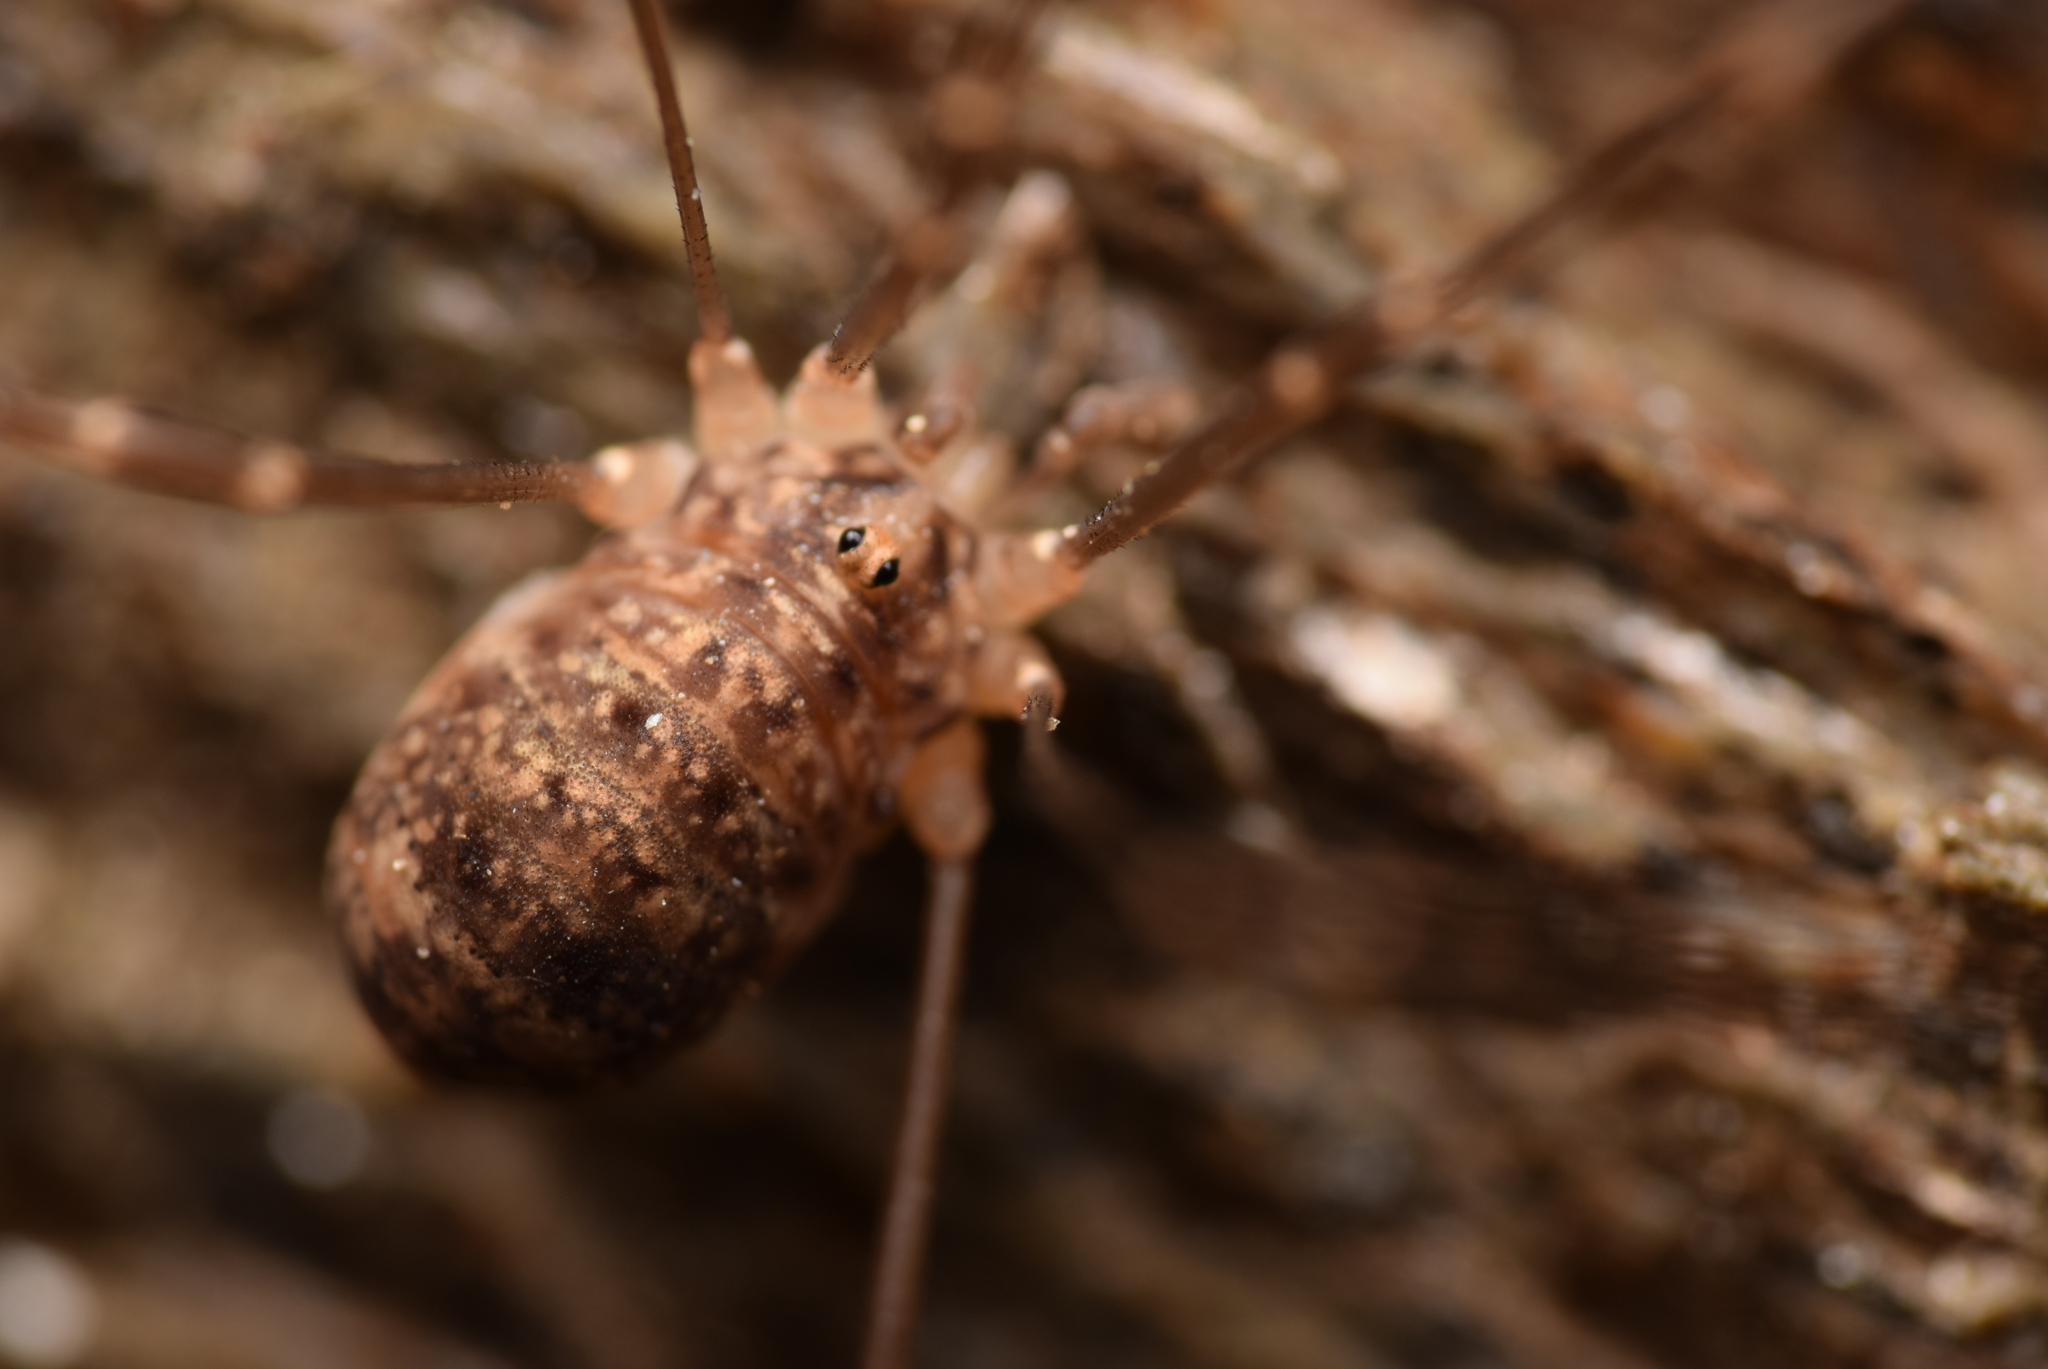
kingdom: Animalia
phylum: Arthropoda
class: Arachnida
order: Opiliones
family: Sclerosomatidae
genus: Nelima
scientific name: Nelima silvatica
